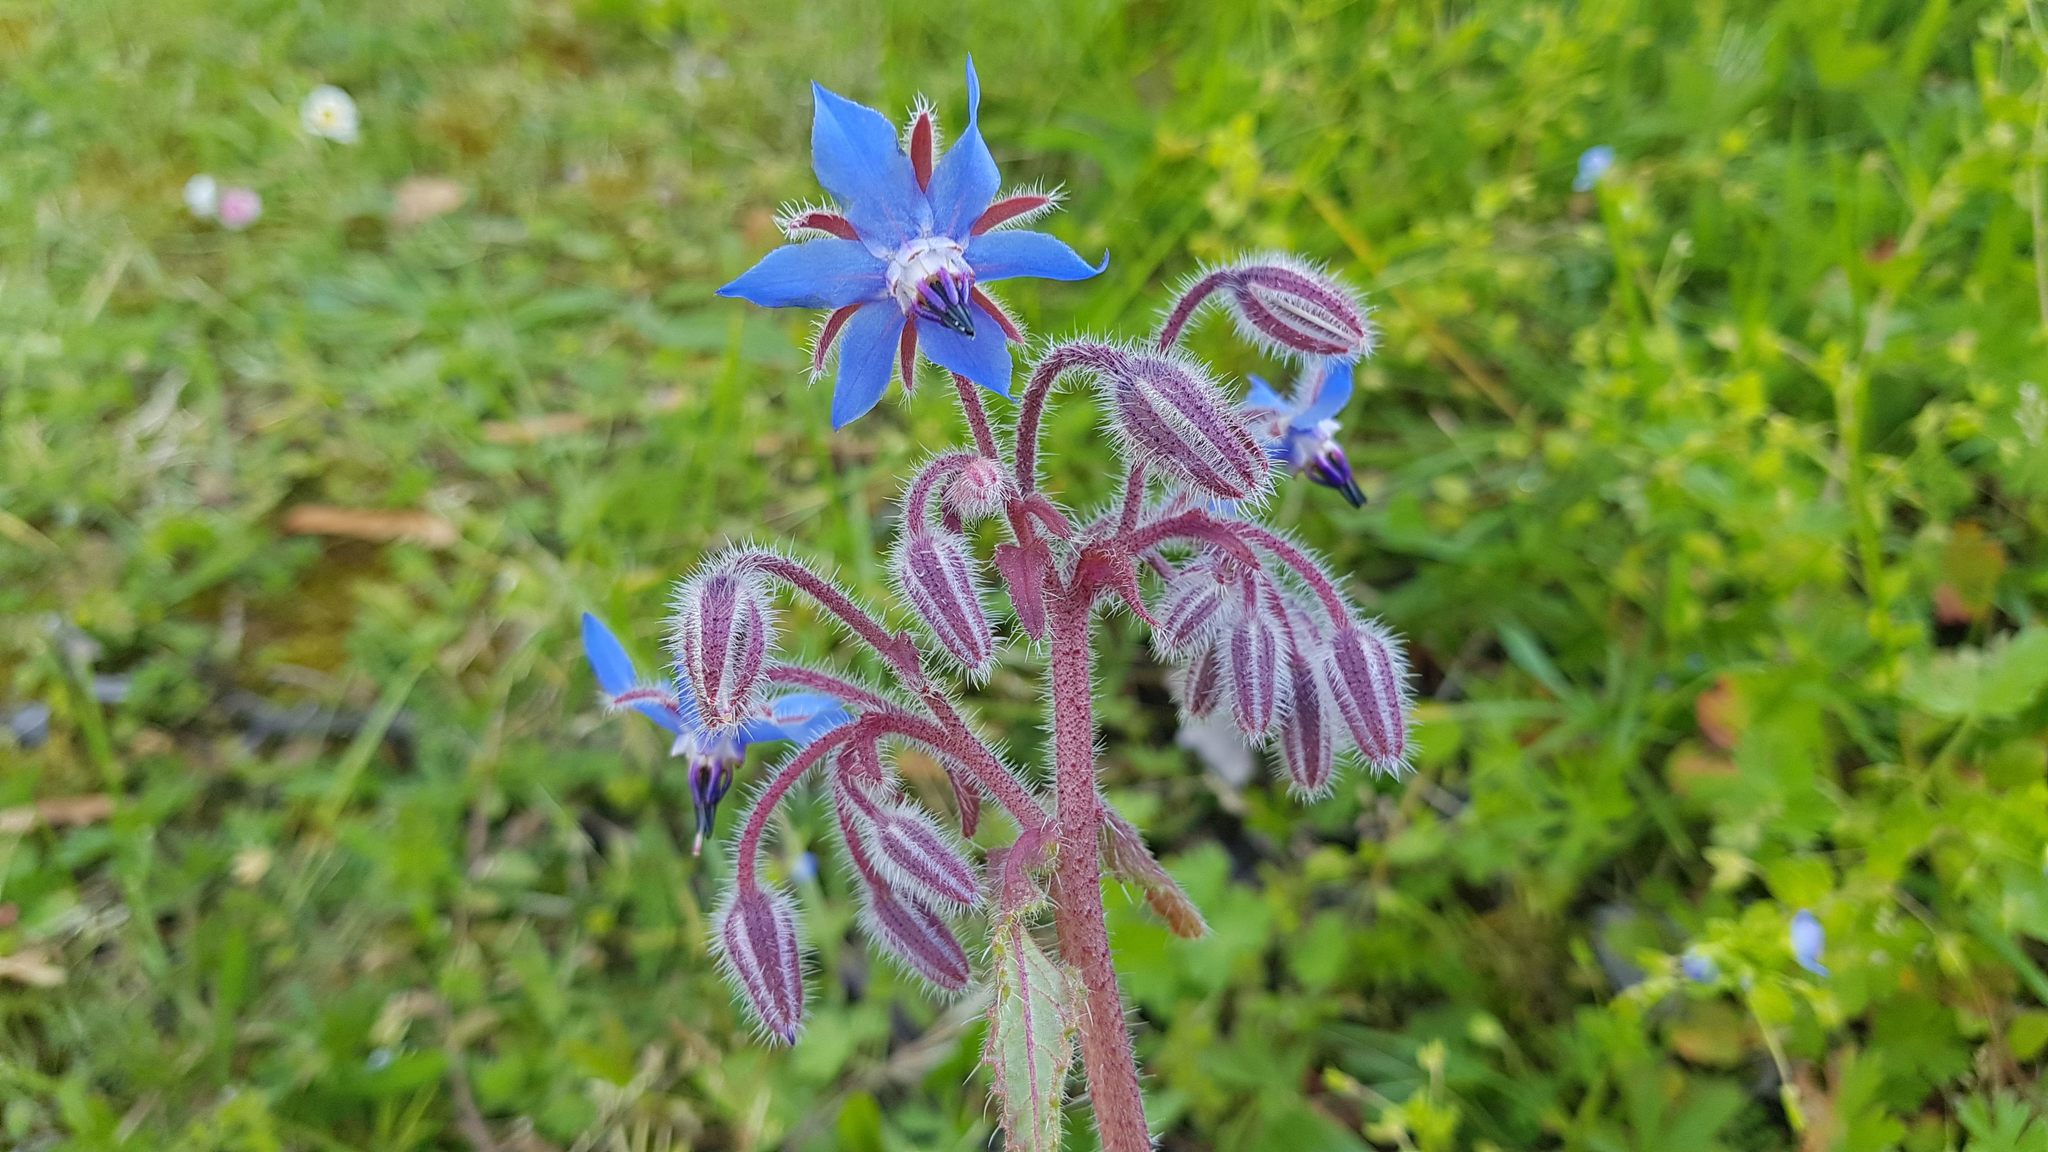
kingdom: Plantae
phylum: Tracheophyta
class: Magnoliopsida
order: Boraginales
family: Boraginaceae
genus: Borago
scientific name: Borago officinalis
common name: Borage
